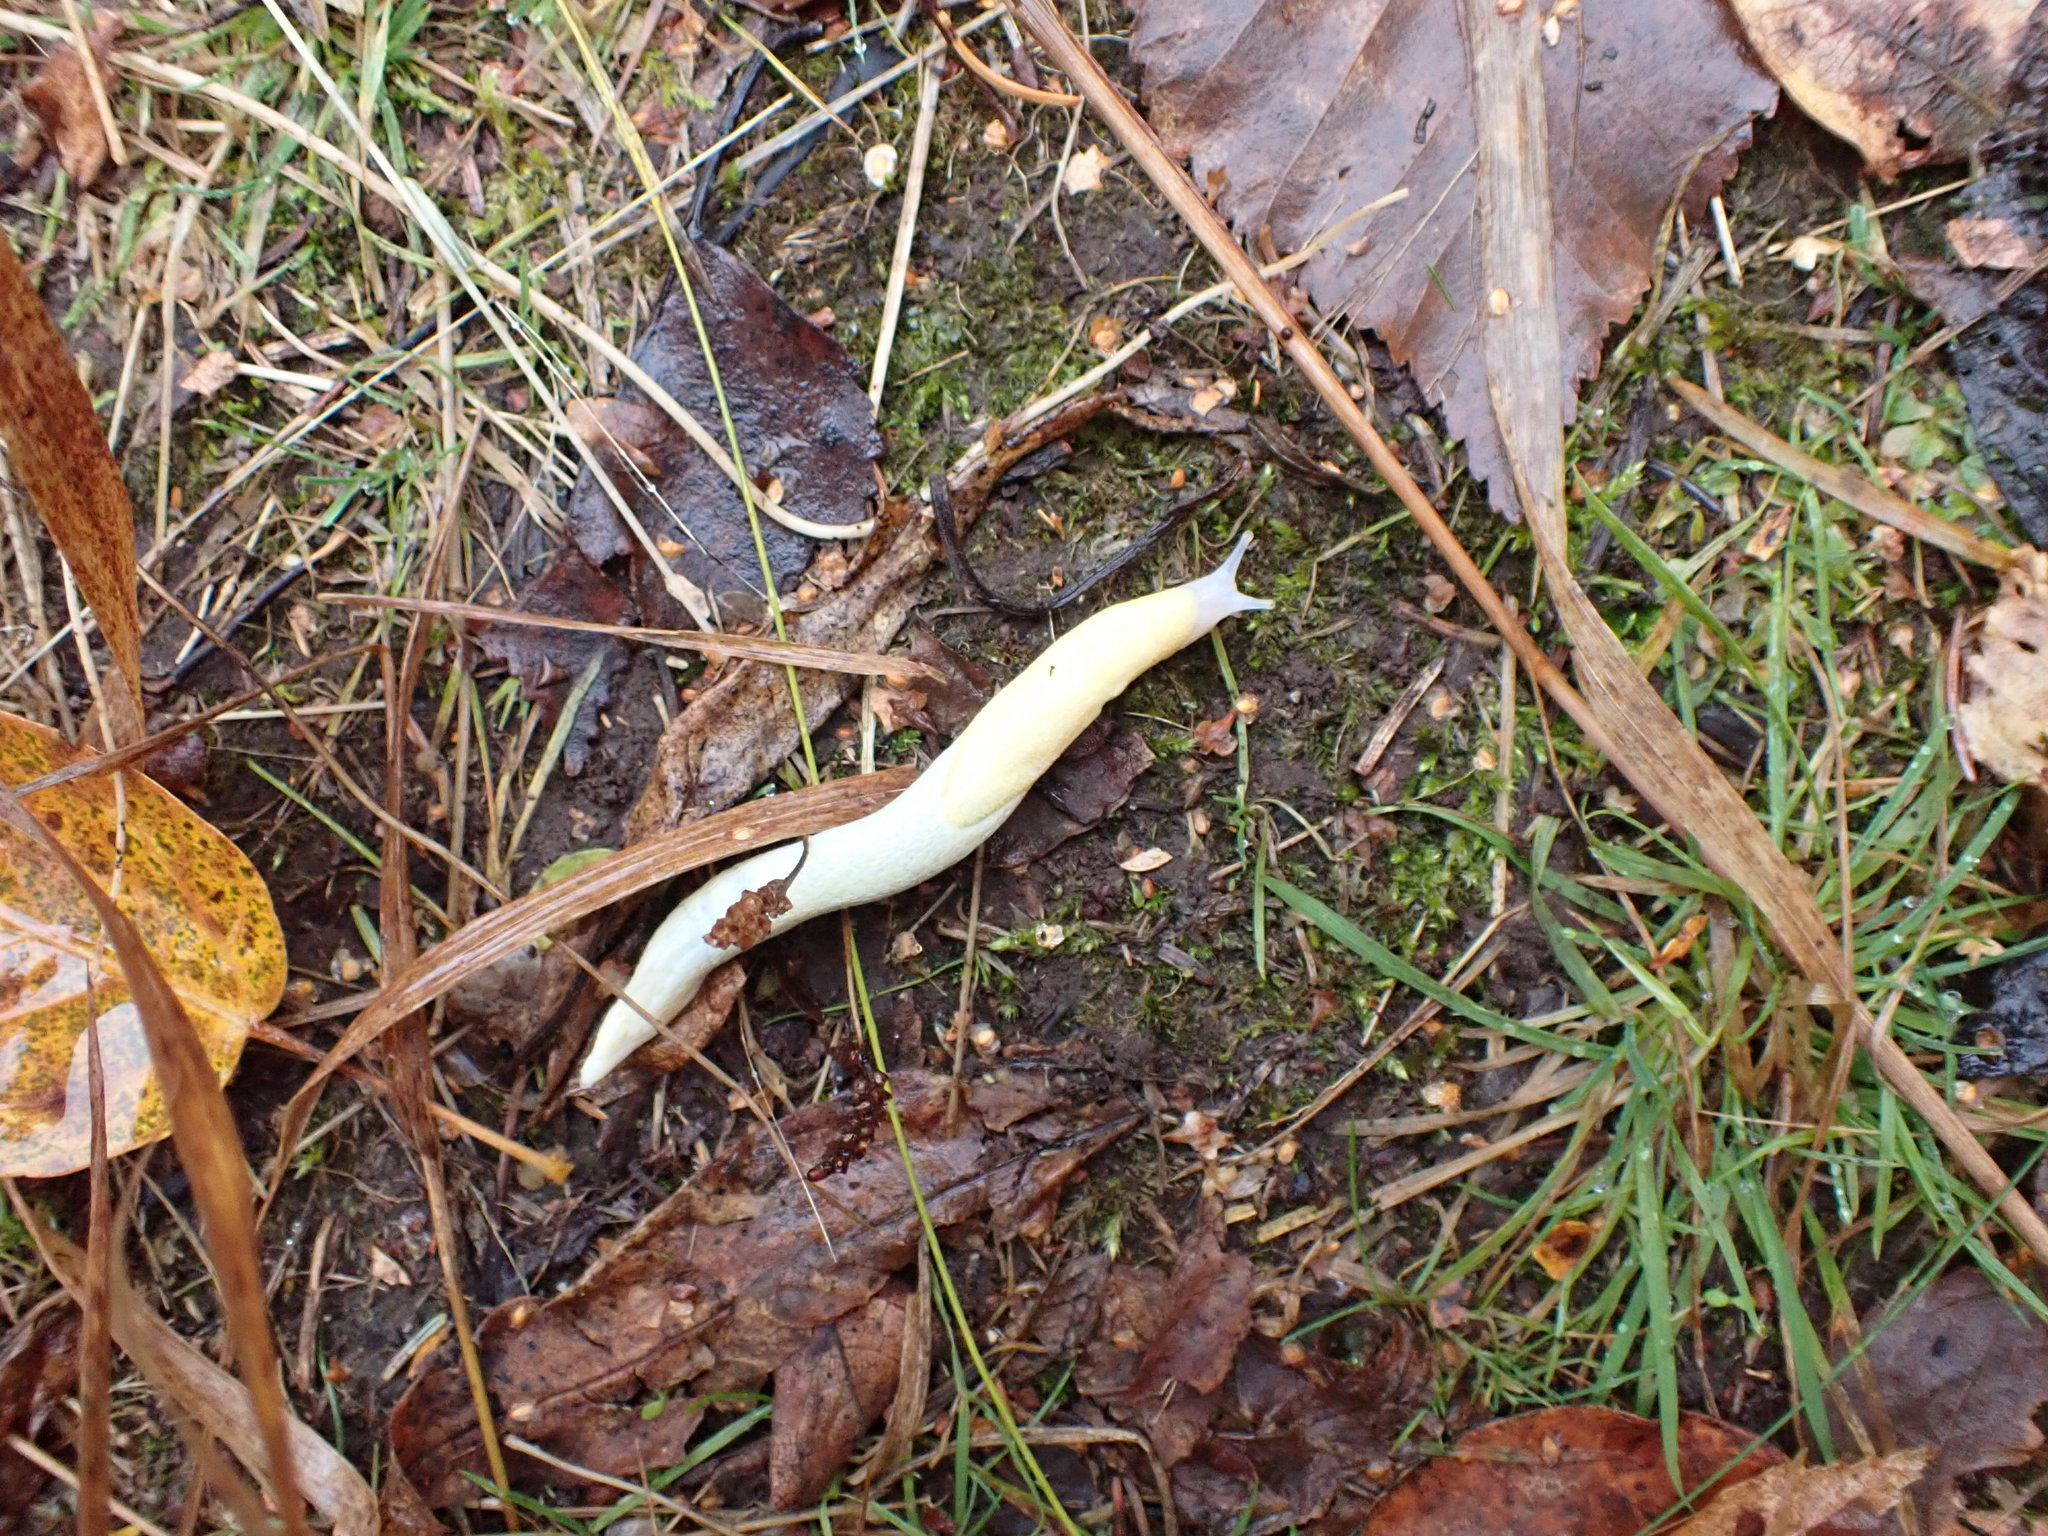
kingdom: Animalia
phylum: Mollusca
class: Gastropoda
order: Stylommatophora
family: Ariolimacidae
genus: Prophysaon
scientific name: Prophysaon andersonii
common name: Reticulate taildropper
